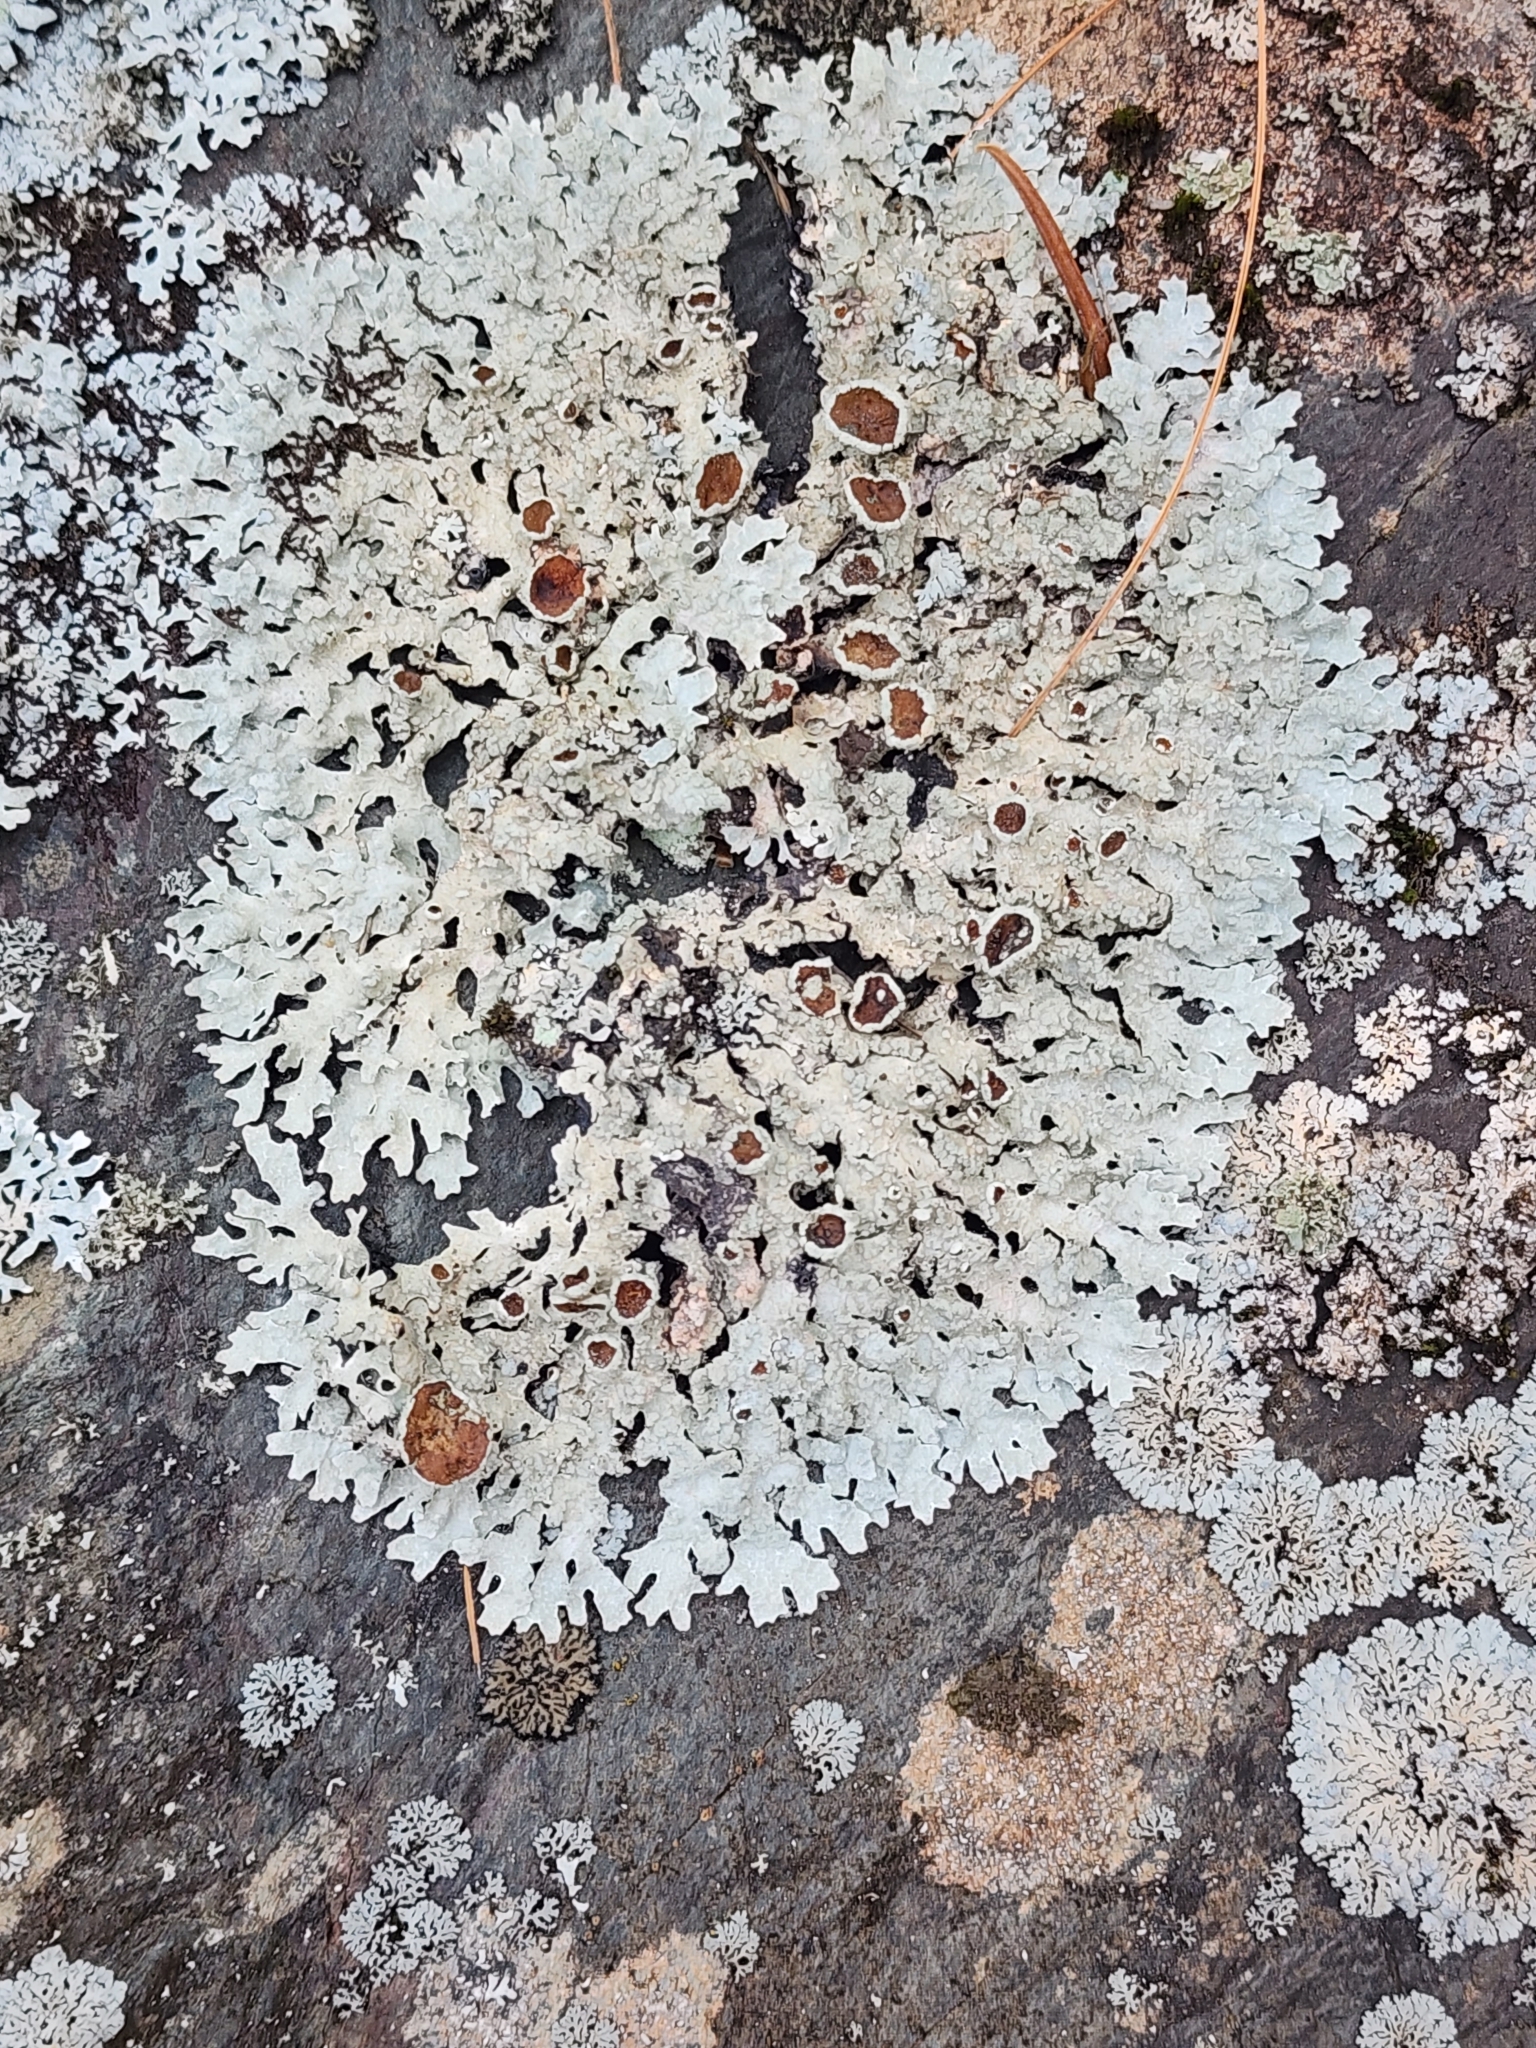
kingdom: Fungi
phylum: Ascomycota
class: Lecanoromycetes
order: Lecanorales
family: Parmeliaceae
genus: Parmelia
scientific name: Parmelia sulcata
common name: Netted shield lichen
